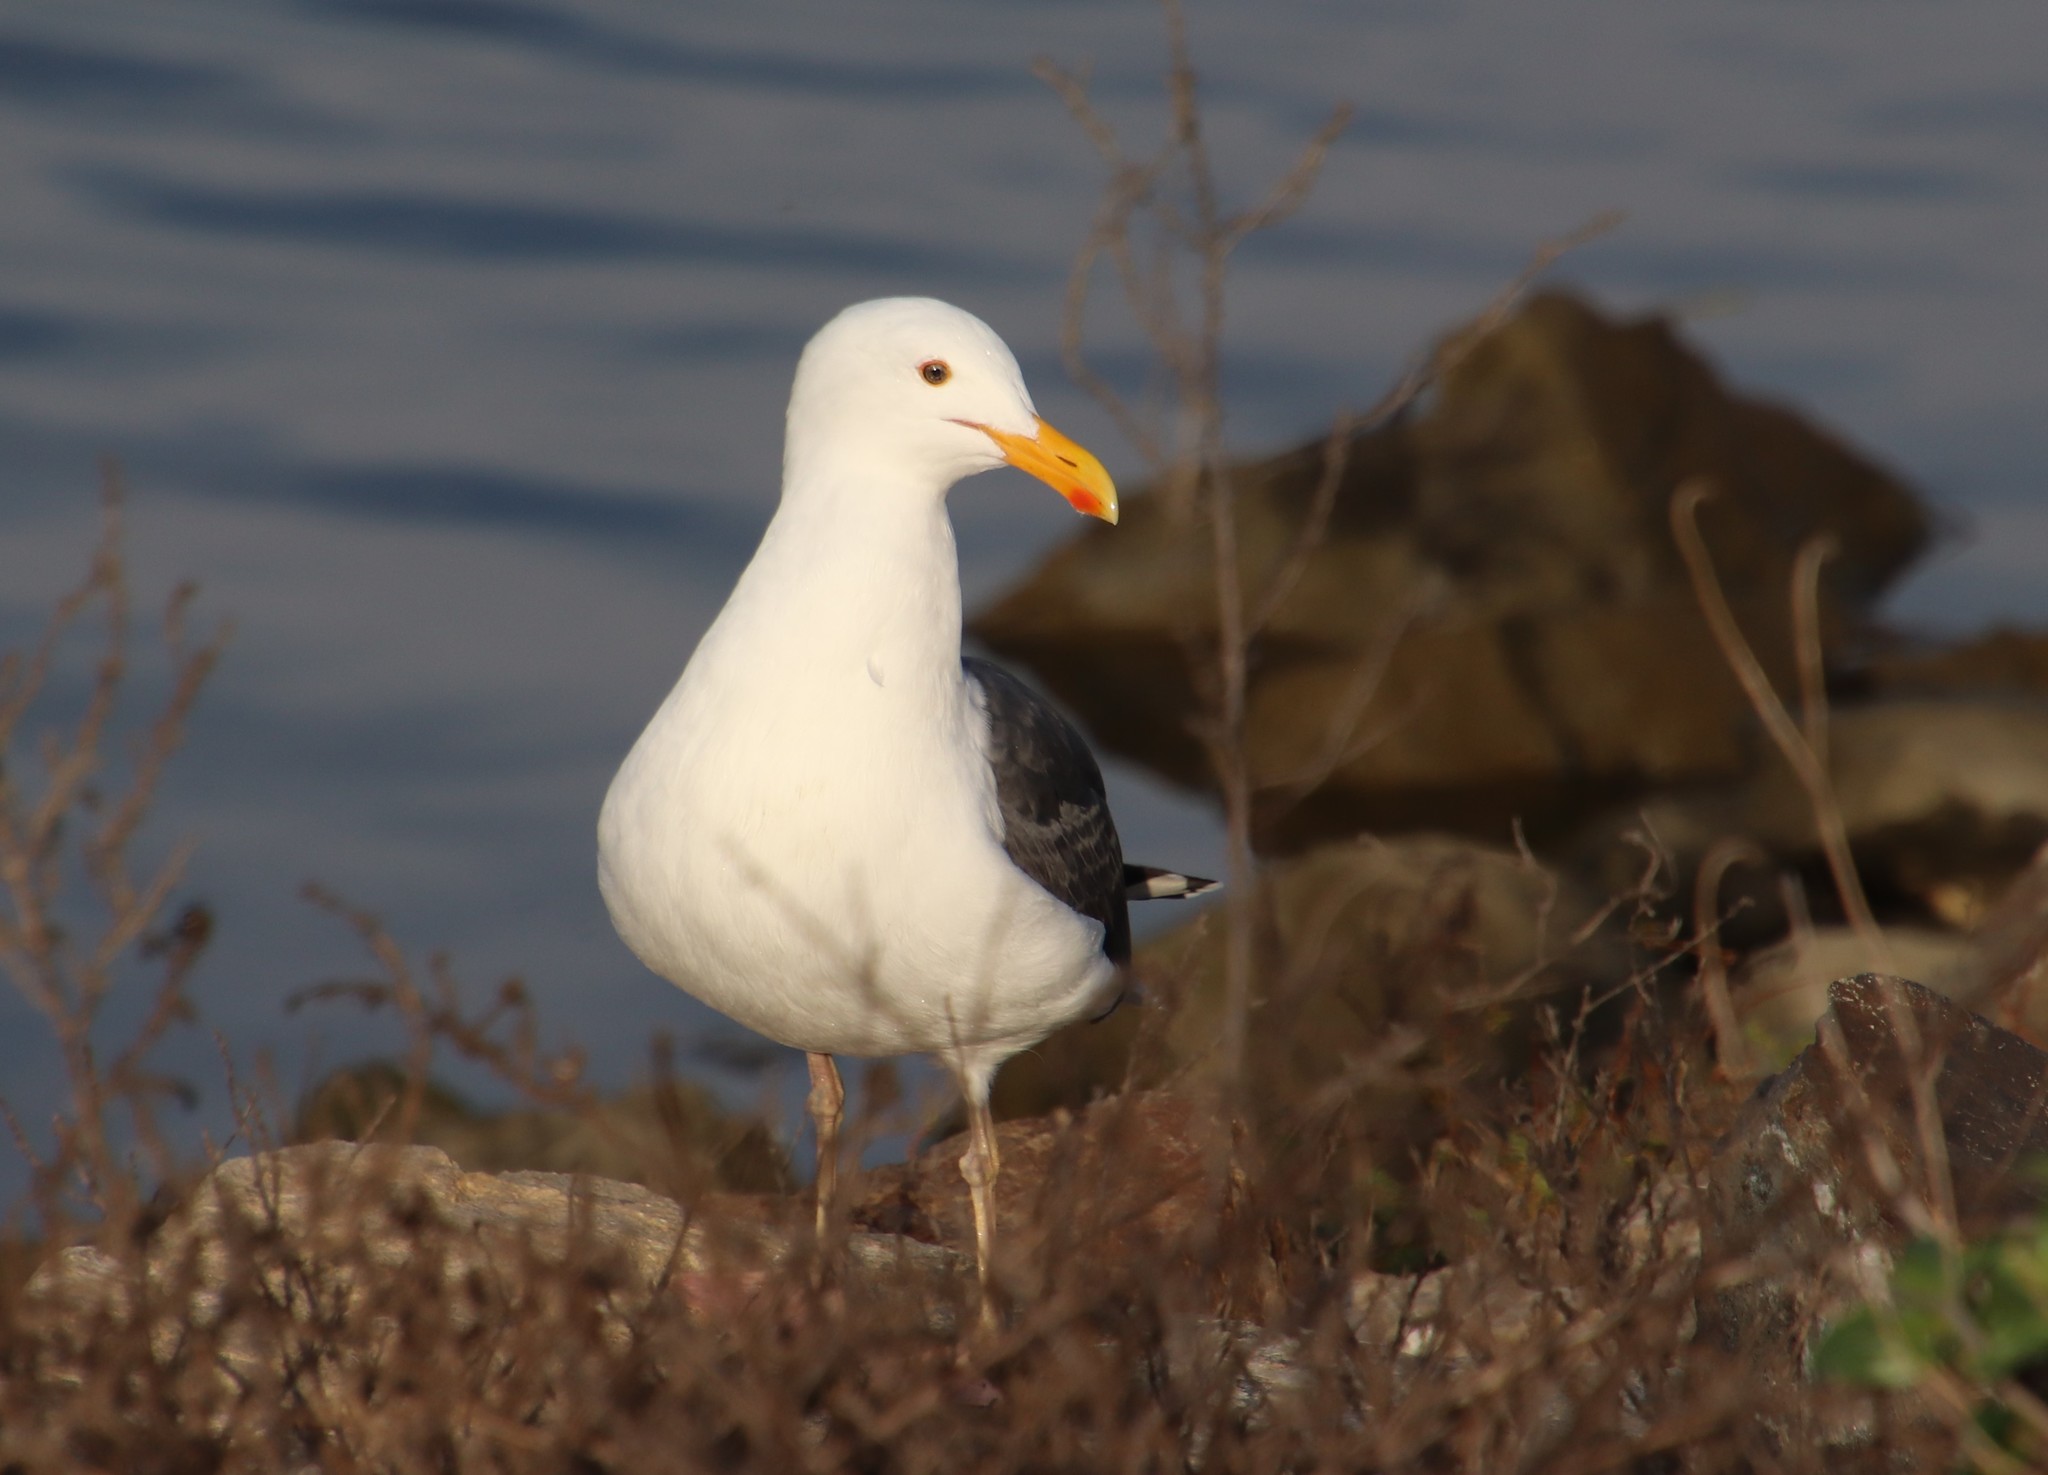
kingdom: Animalia
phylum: Chordata
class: Aves
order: Charadriiformes
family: Laridae
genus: Larus
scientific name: Larus occidentalis
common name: Western gull
